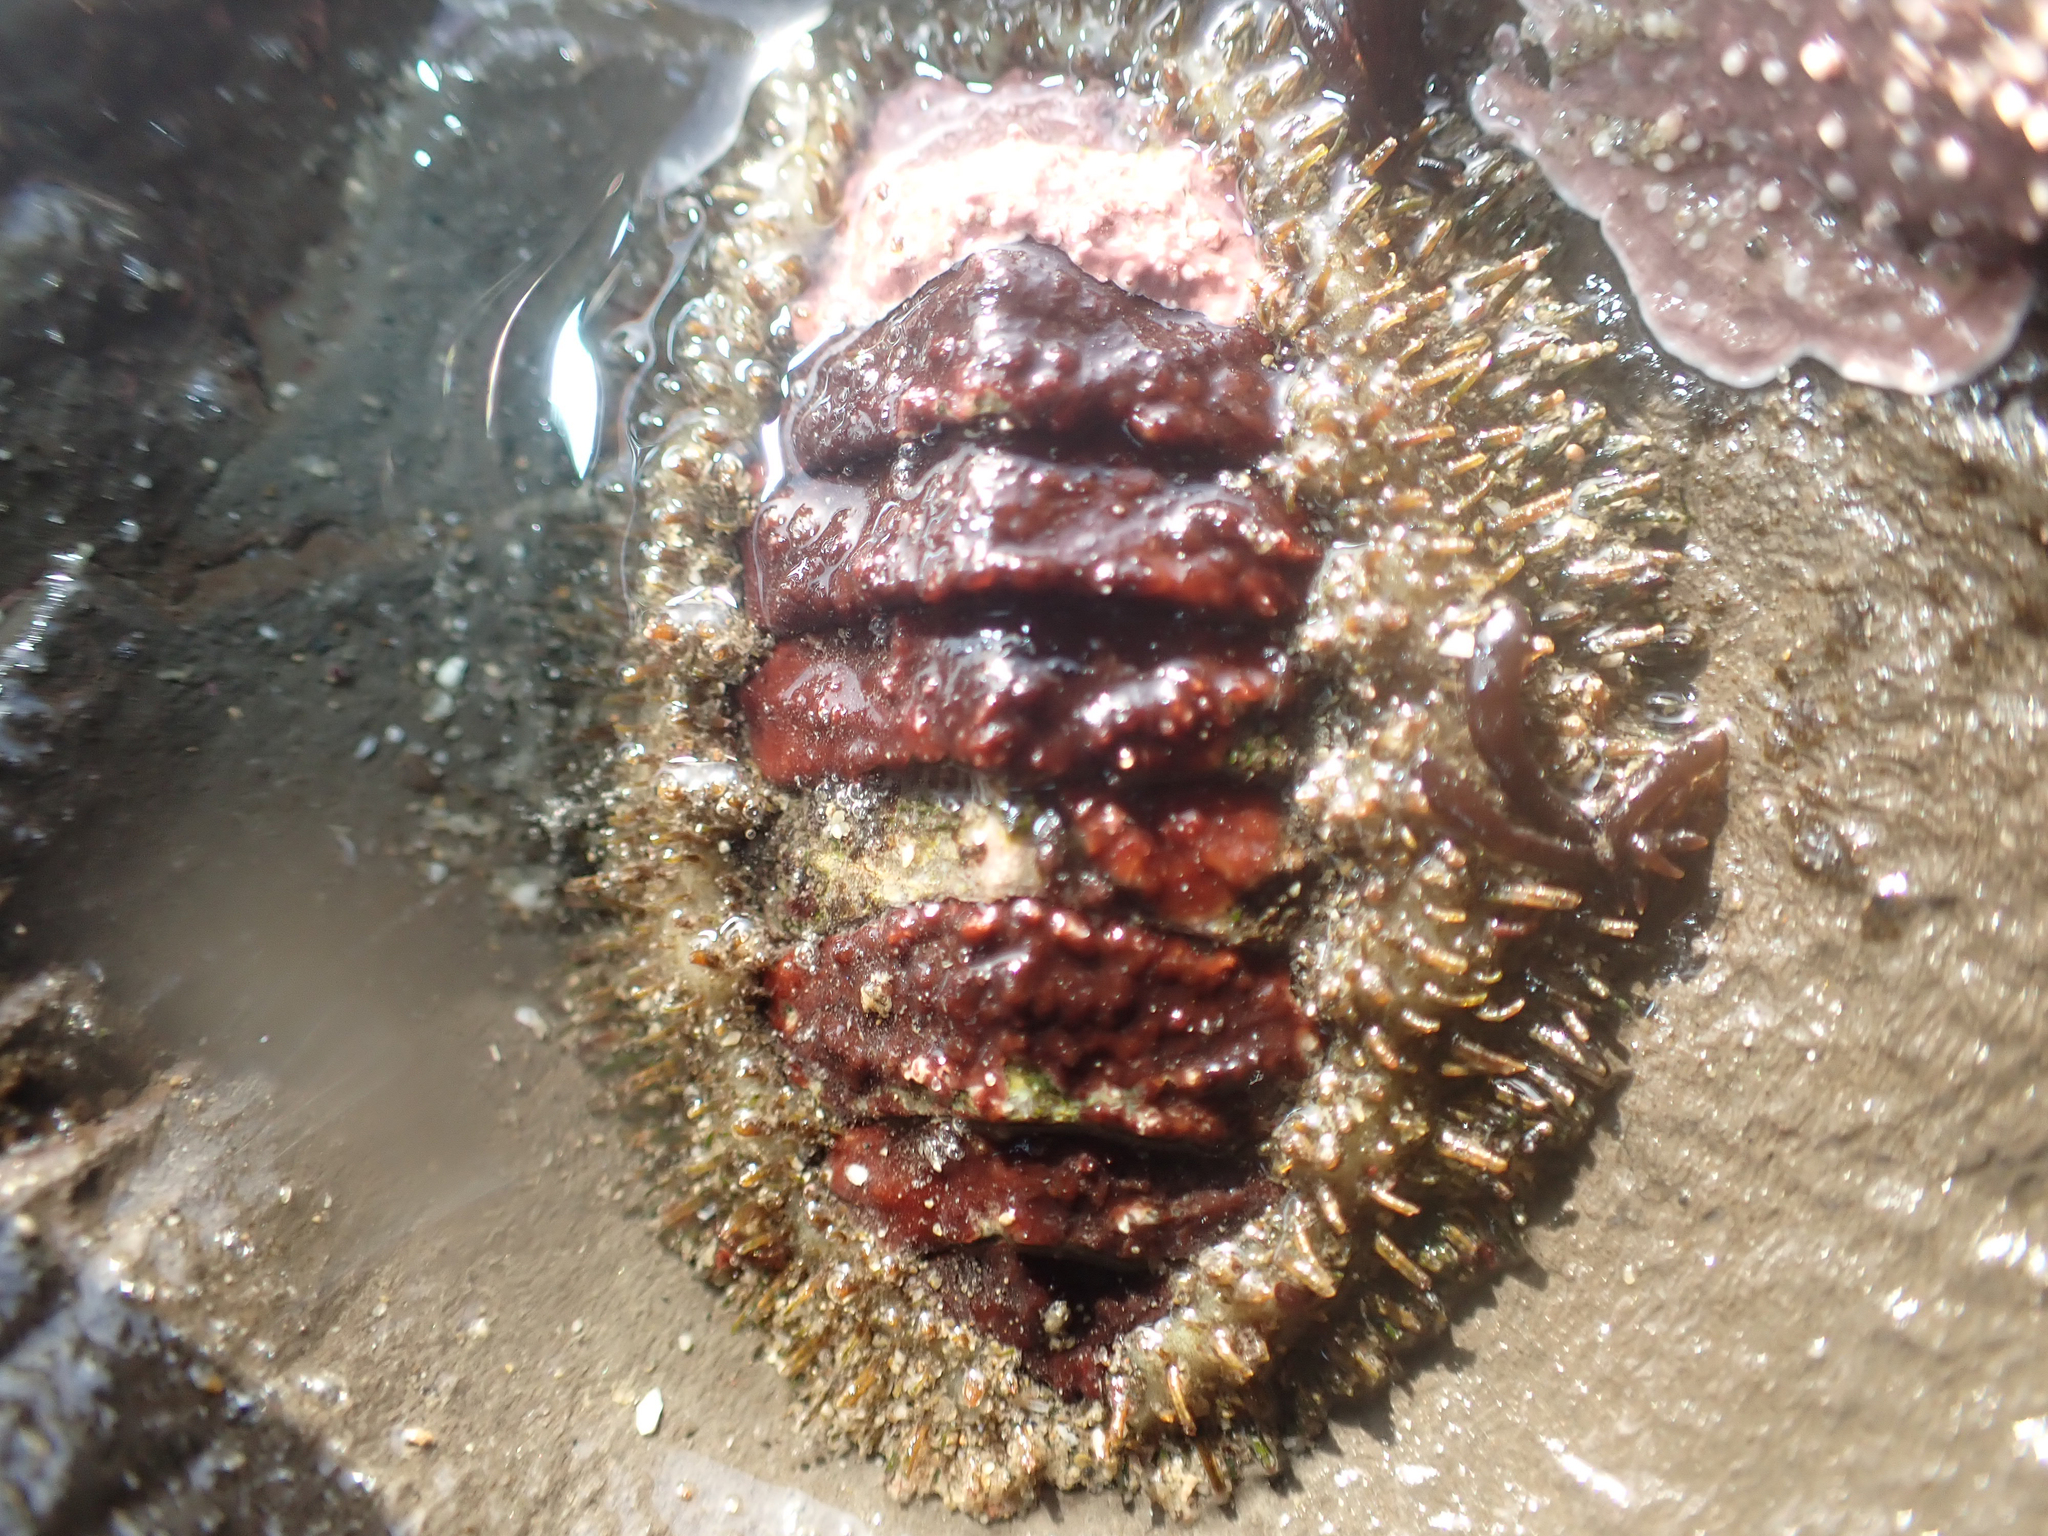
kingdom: Animalia
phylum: Mollusca
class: Polyplacophora
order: Chitonida
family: Mopaliidae
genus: Mopalia
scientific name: Mopalia muscosa
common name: Mossy chiton
